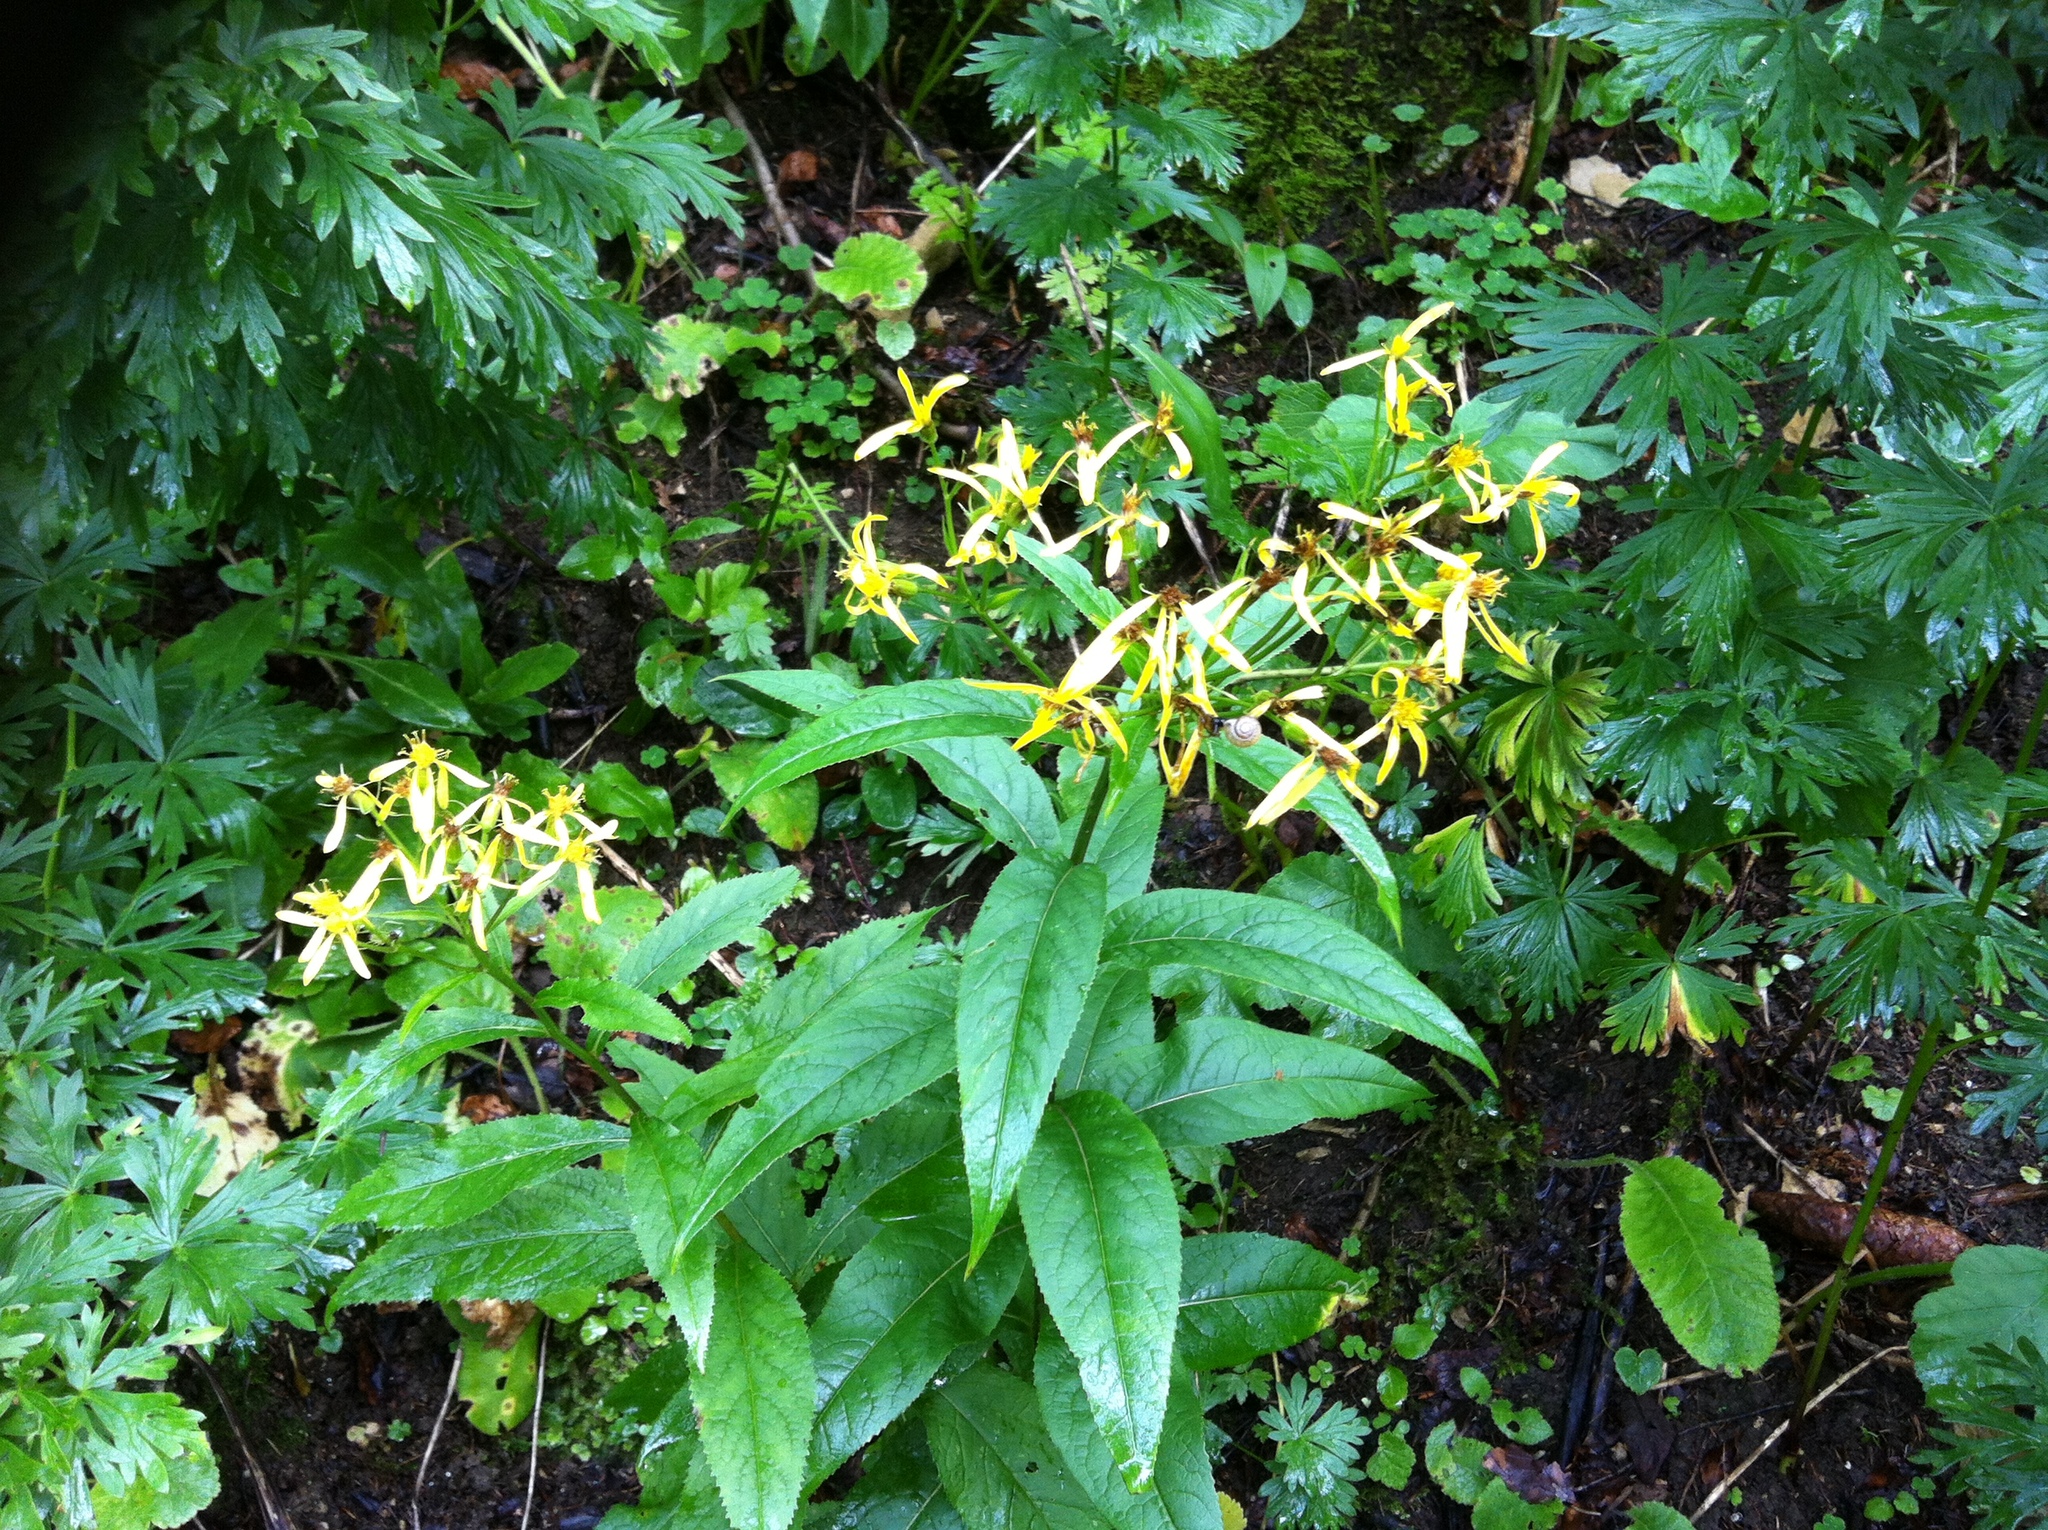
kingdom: Plantae
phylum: Tracheophyta
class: Magnoliopsida
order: Asterales
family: Asteraceae
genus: Senecio
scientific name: Senecio ovatus
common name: Wood ragwort
